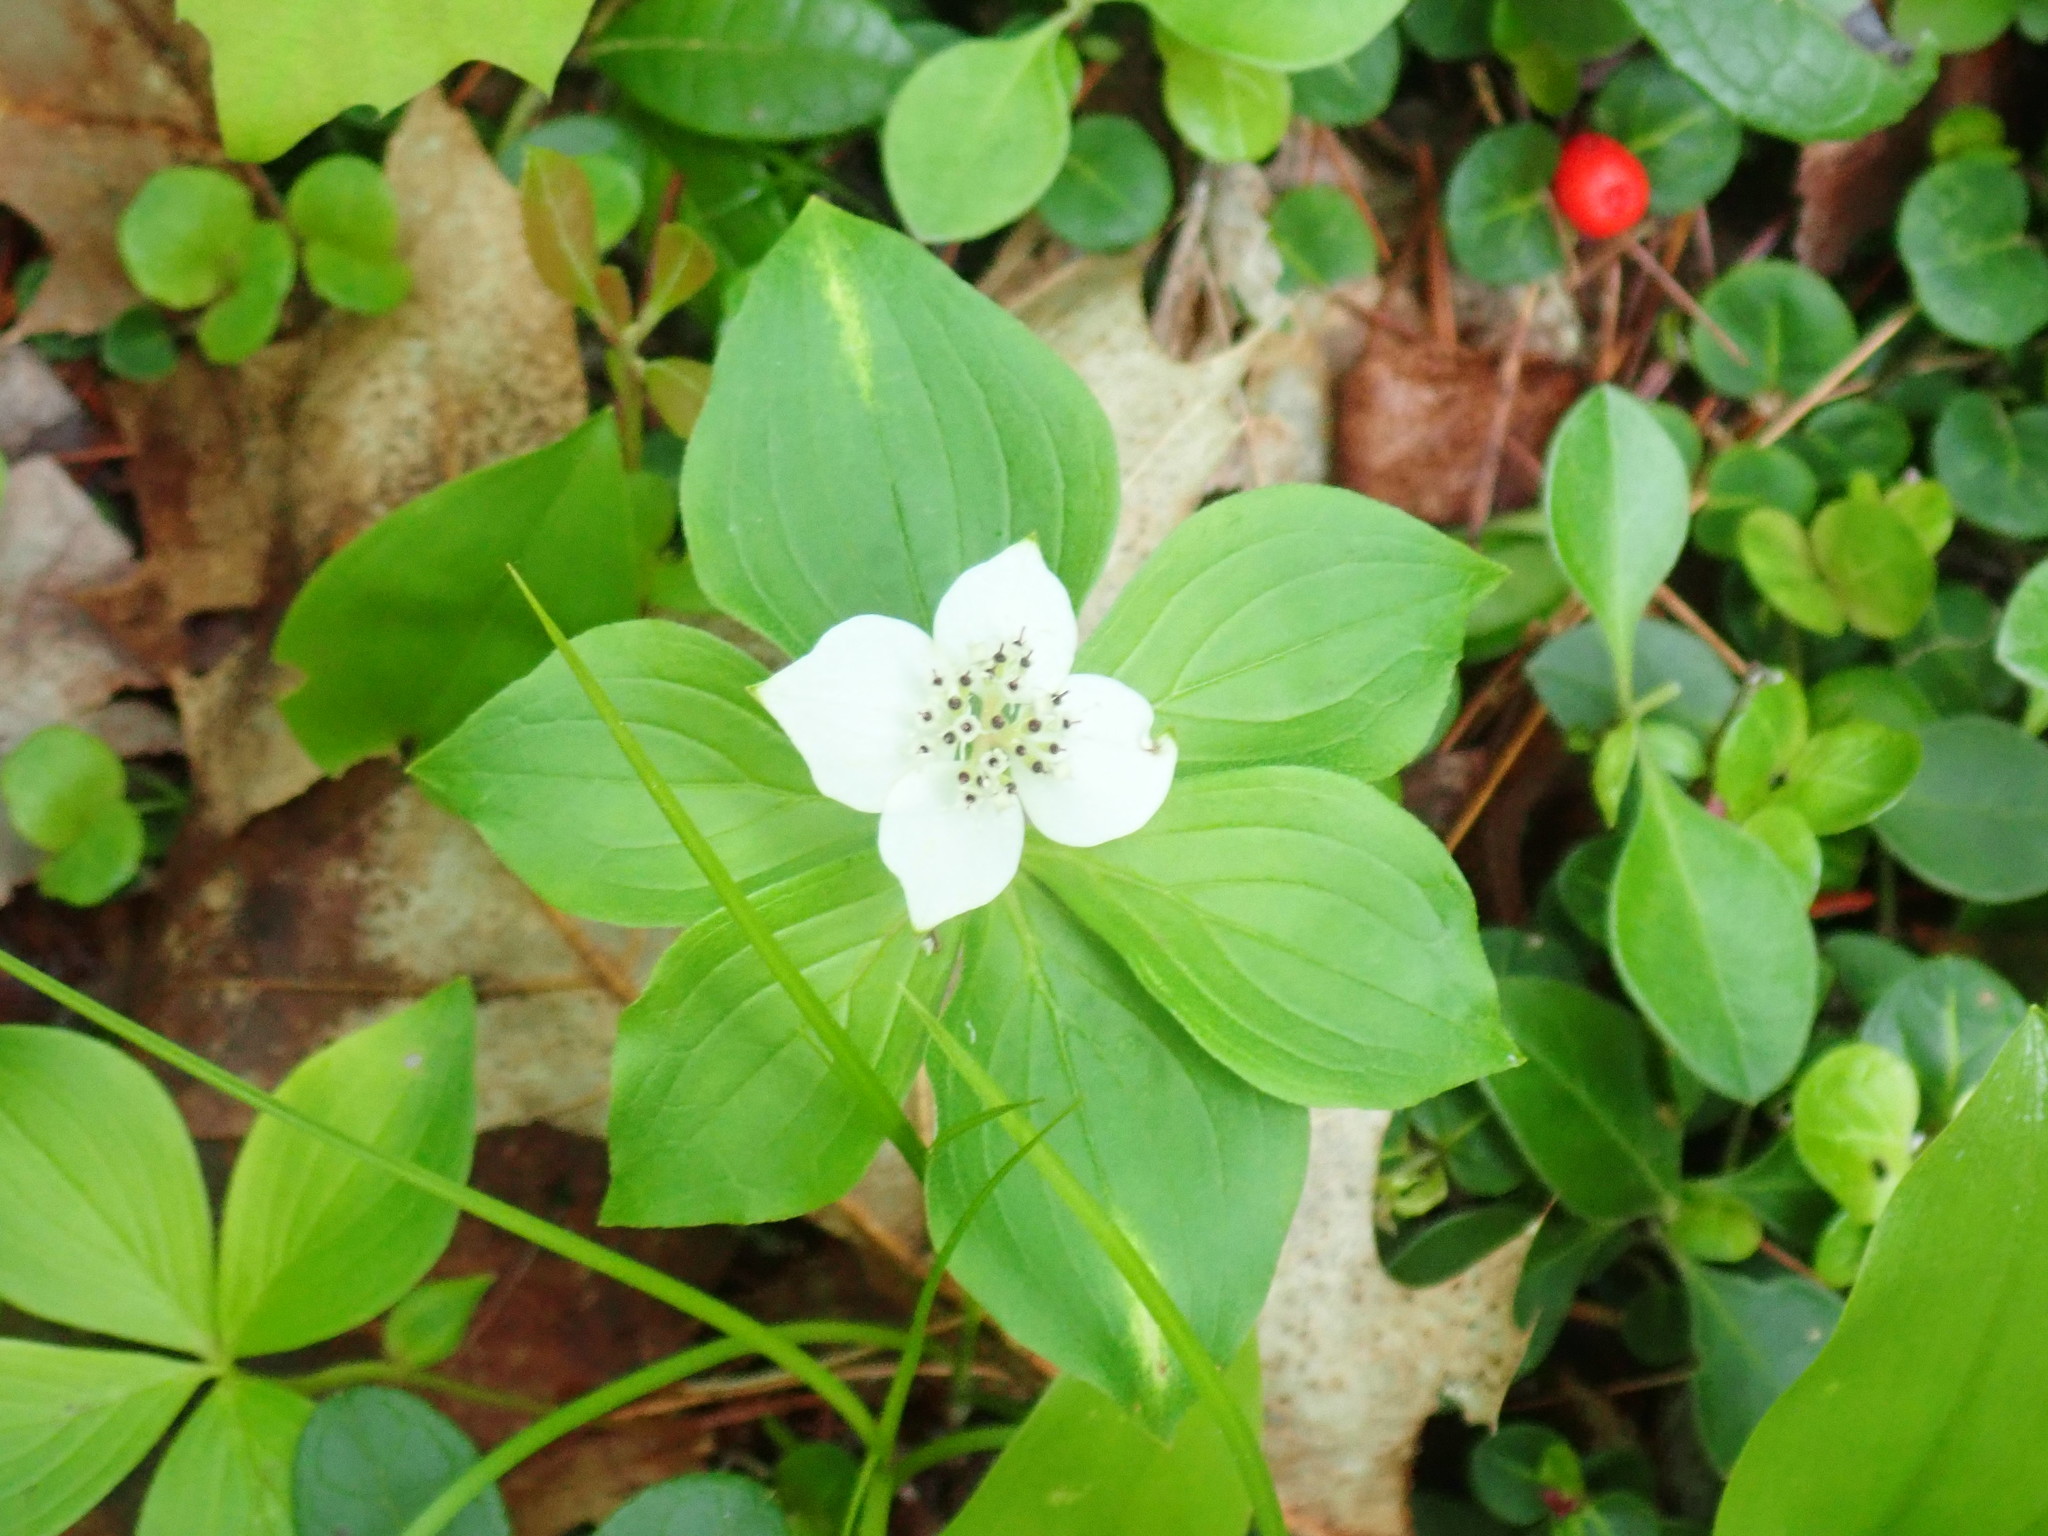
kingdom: Plantae
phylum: Tracheophyta
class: Magnoliopsida
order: Cornales
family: Cornaceae
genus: Cornus
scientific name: Cornus canadensis
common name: Creeping dogwood
